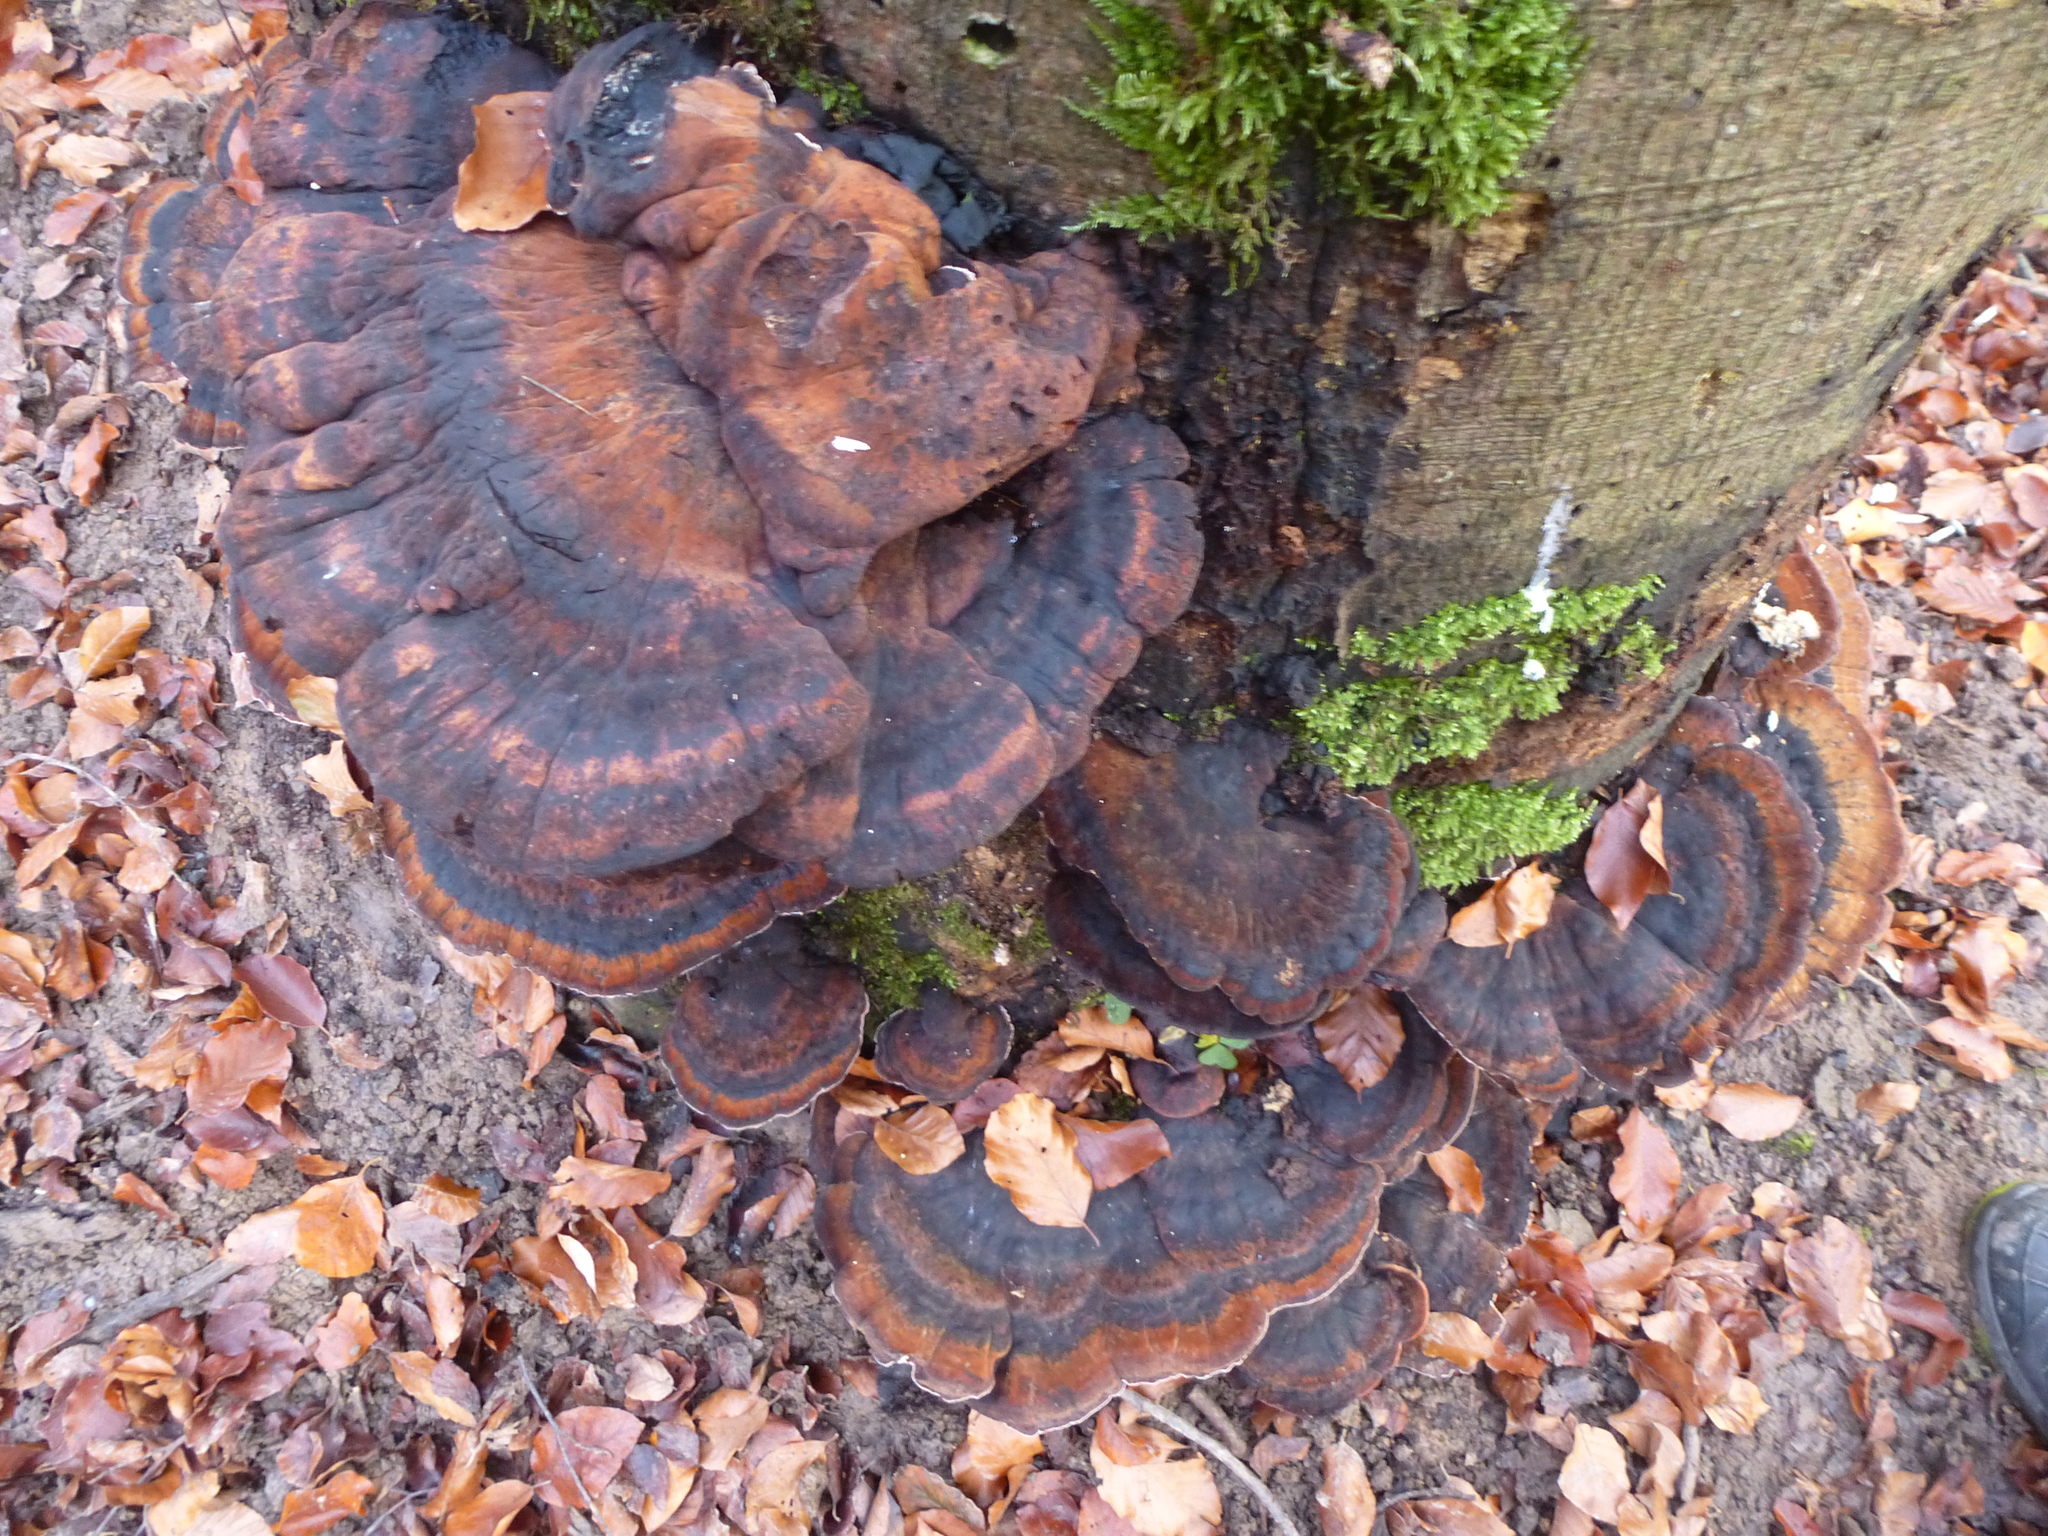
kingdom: Fungi
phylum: Basidiomycota
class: Agaricomycetes
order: Polyporales
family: Ischnodermataceae
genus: Ischnoderma
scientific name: Ischnoderma resinosum
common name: Resinous polypore
